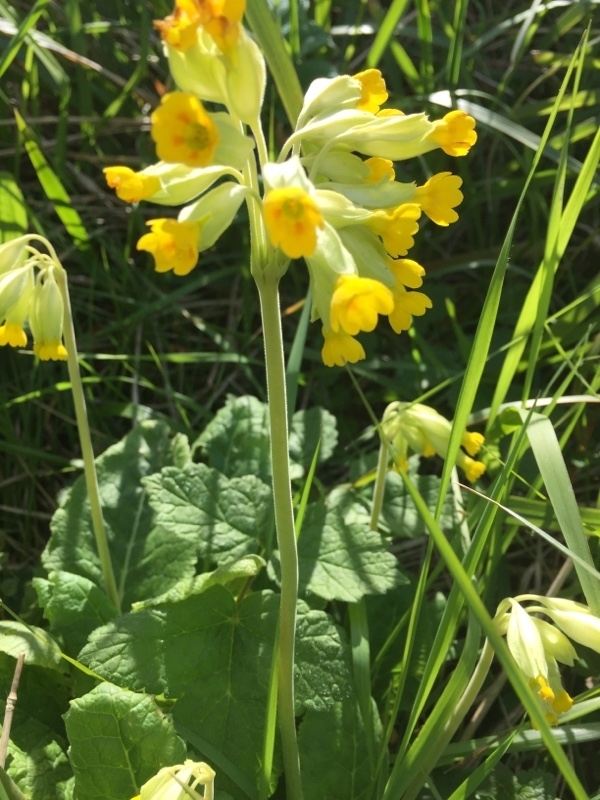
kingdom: Plantae
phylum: Tracheophyta
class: Magnoliopsida
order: Ericales
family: Primulaceae
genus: Primula
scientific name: Primula veris
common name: Cowslip
